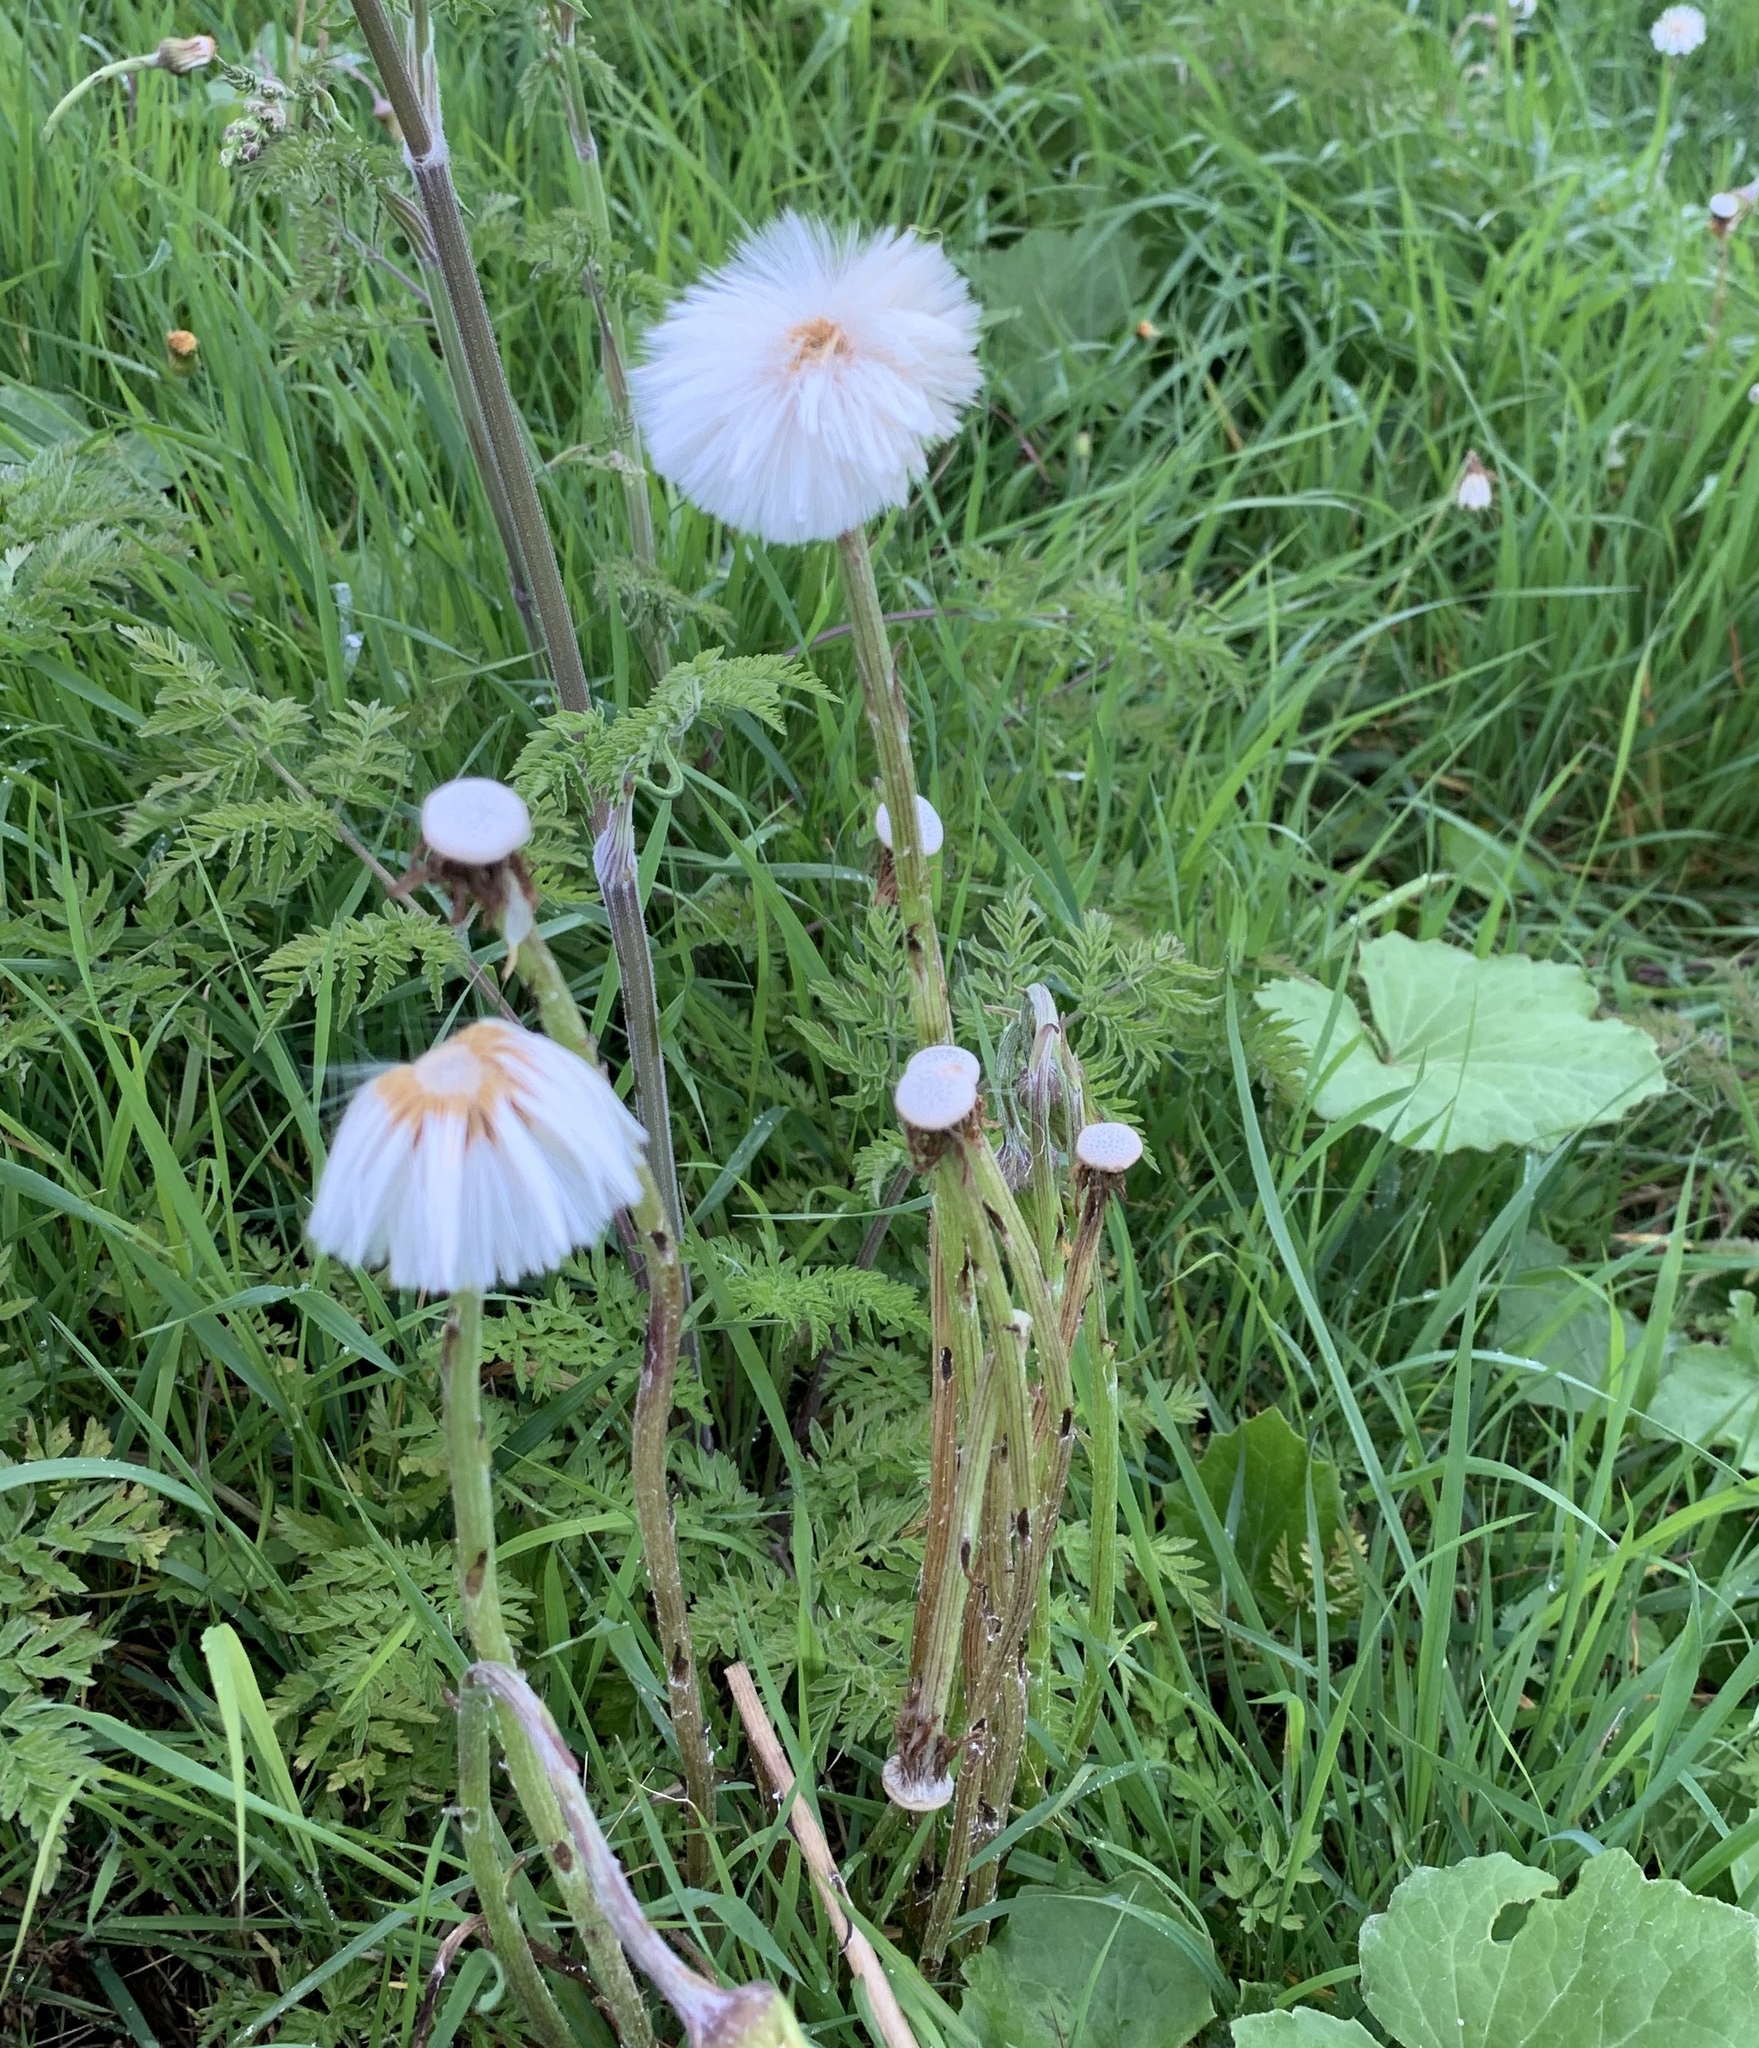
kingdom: Plantae
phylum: Tracheophyta
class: Magnoliopsida
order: Asterales
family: Asteraceae
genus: Tussilago
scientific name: Tussilago farfara
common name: Coltsfoot
